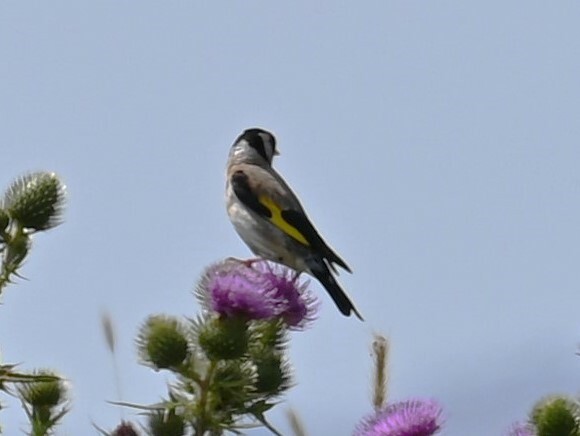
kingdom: Animalia
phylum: Chordata
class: Aves
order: Passeriformes
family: Fringillidae
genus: Carduelis
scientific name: Carduelis carduelis
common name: European goldfinch
